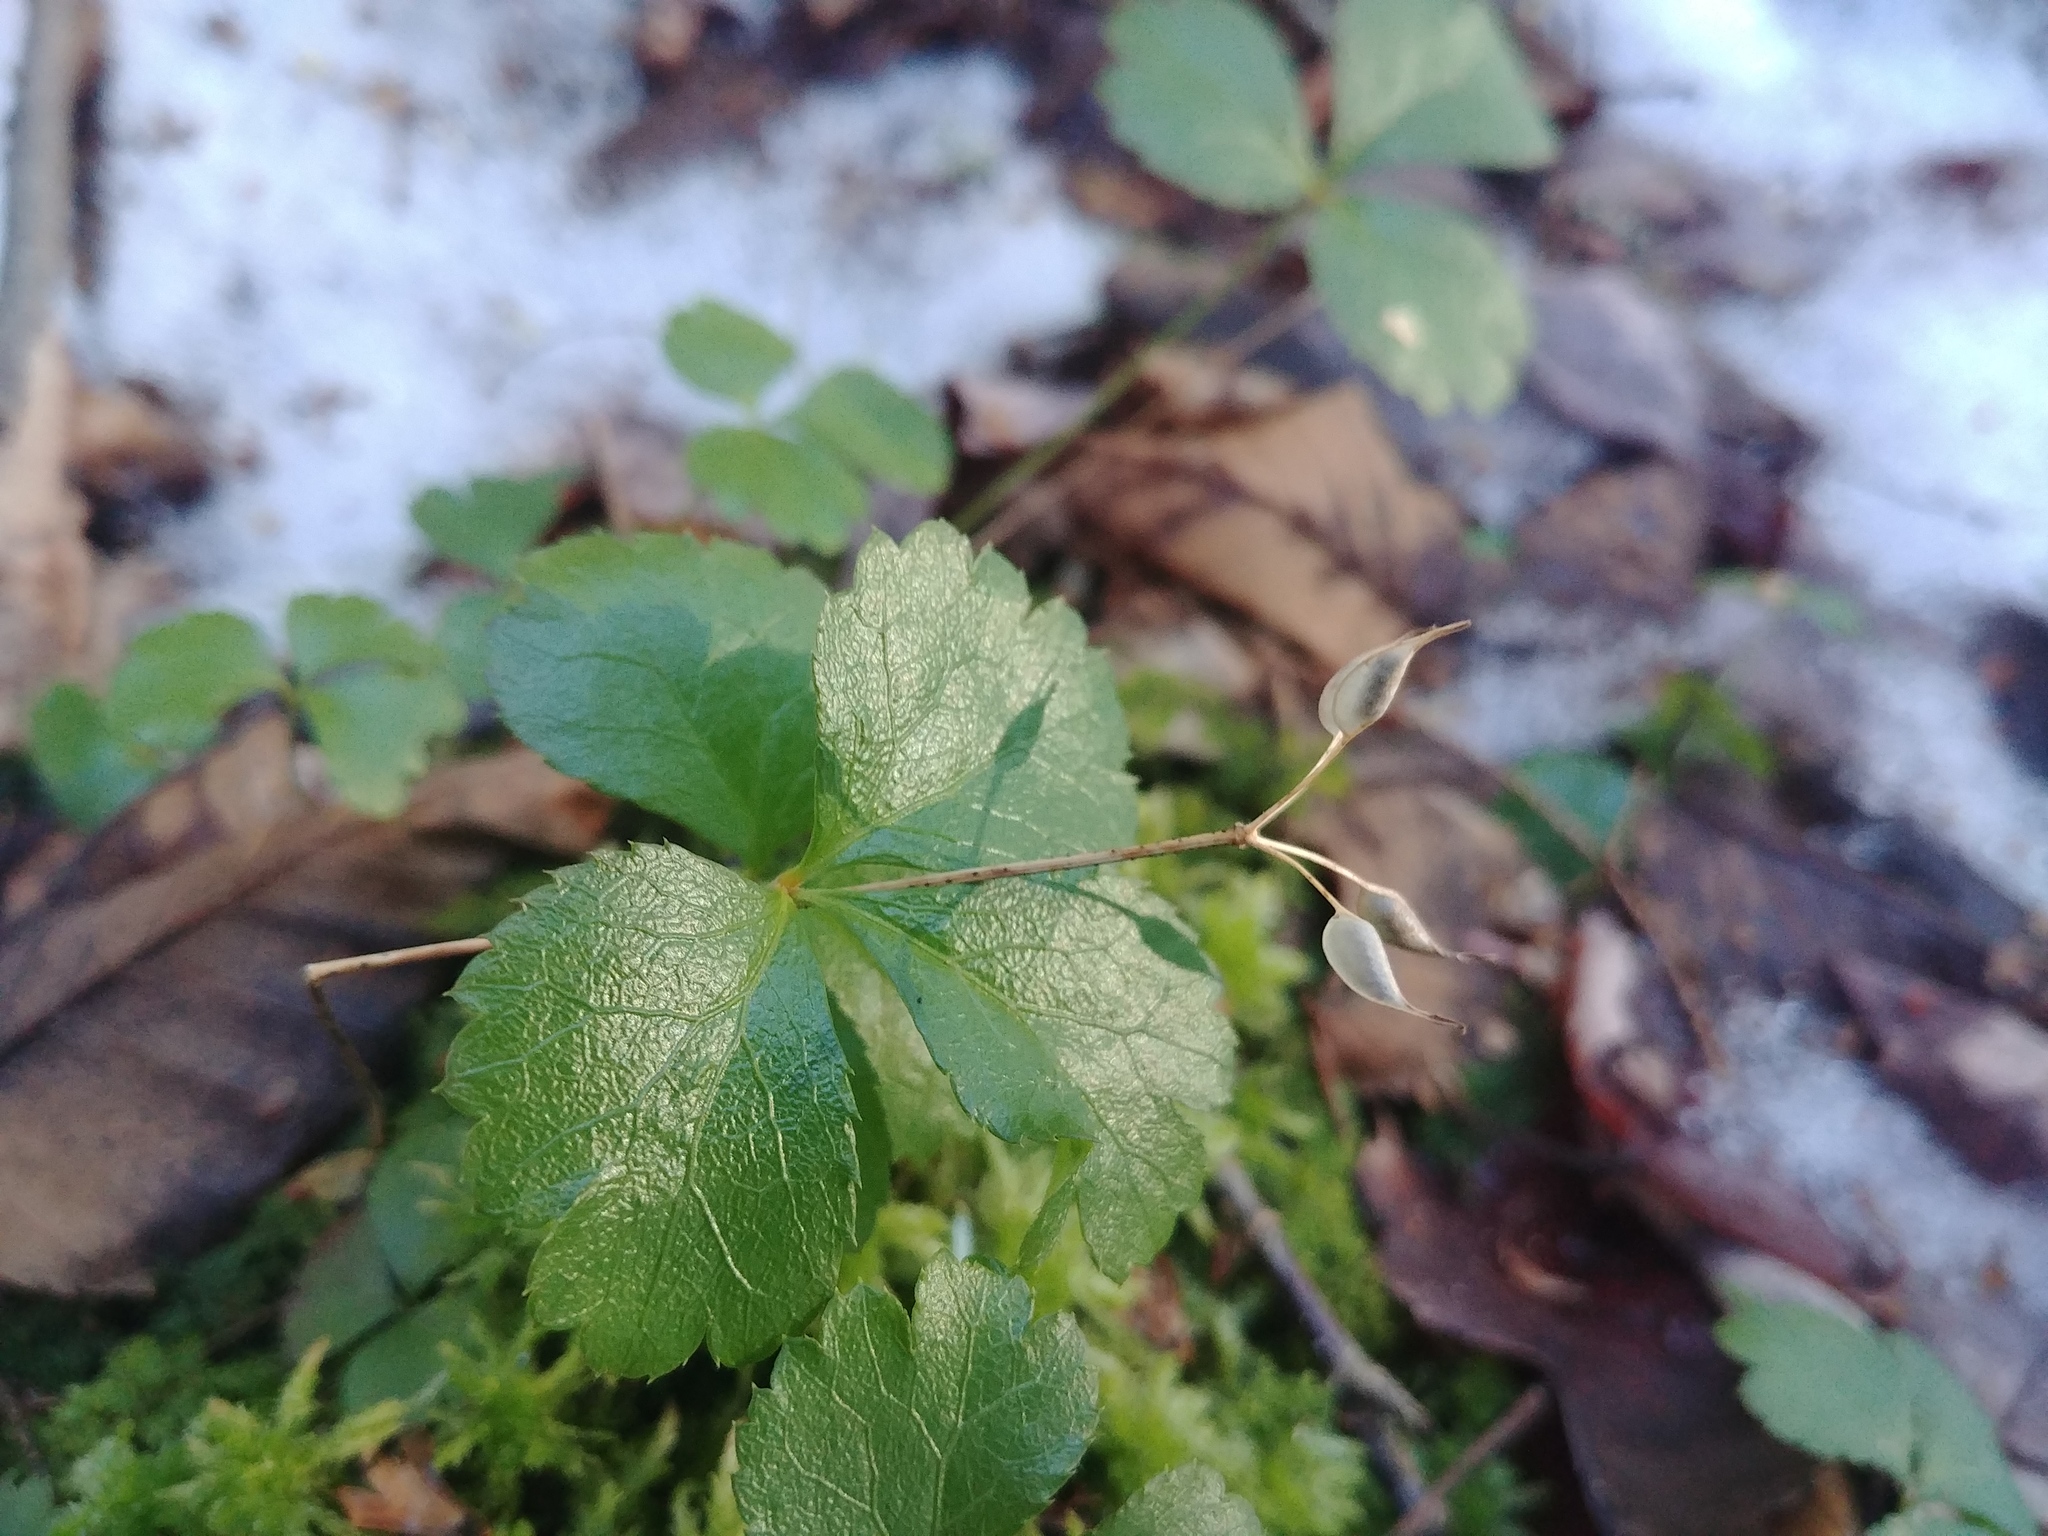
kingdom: Plantae
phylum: Tracheophyta
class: Magnoliopsida
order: Ranunculales
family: Ranunculaceae
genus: Coptis
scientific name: Coptis trifolia
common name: Canker-root
